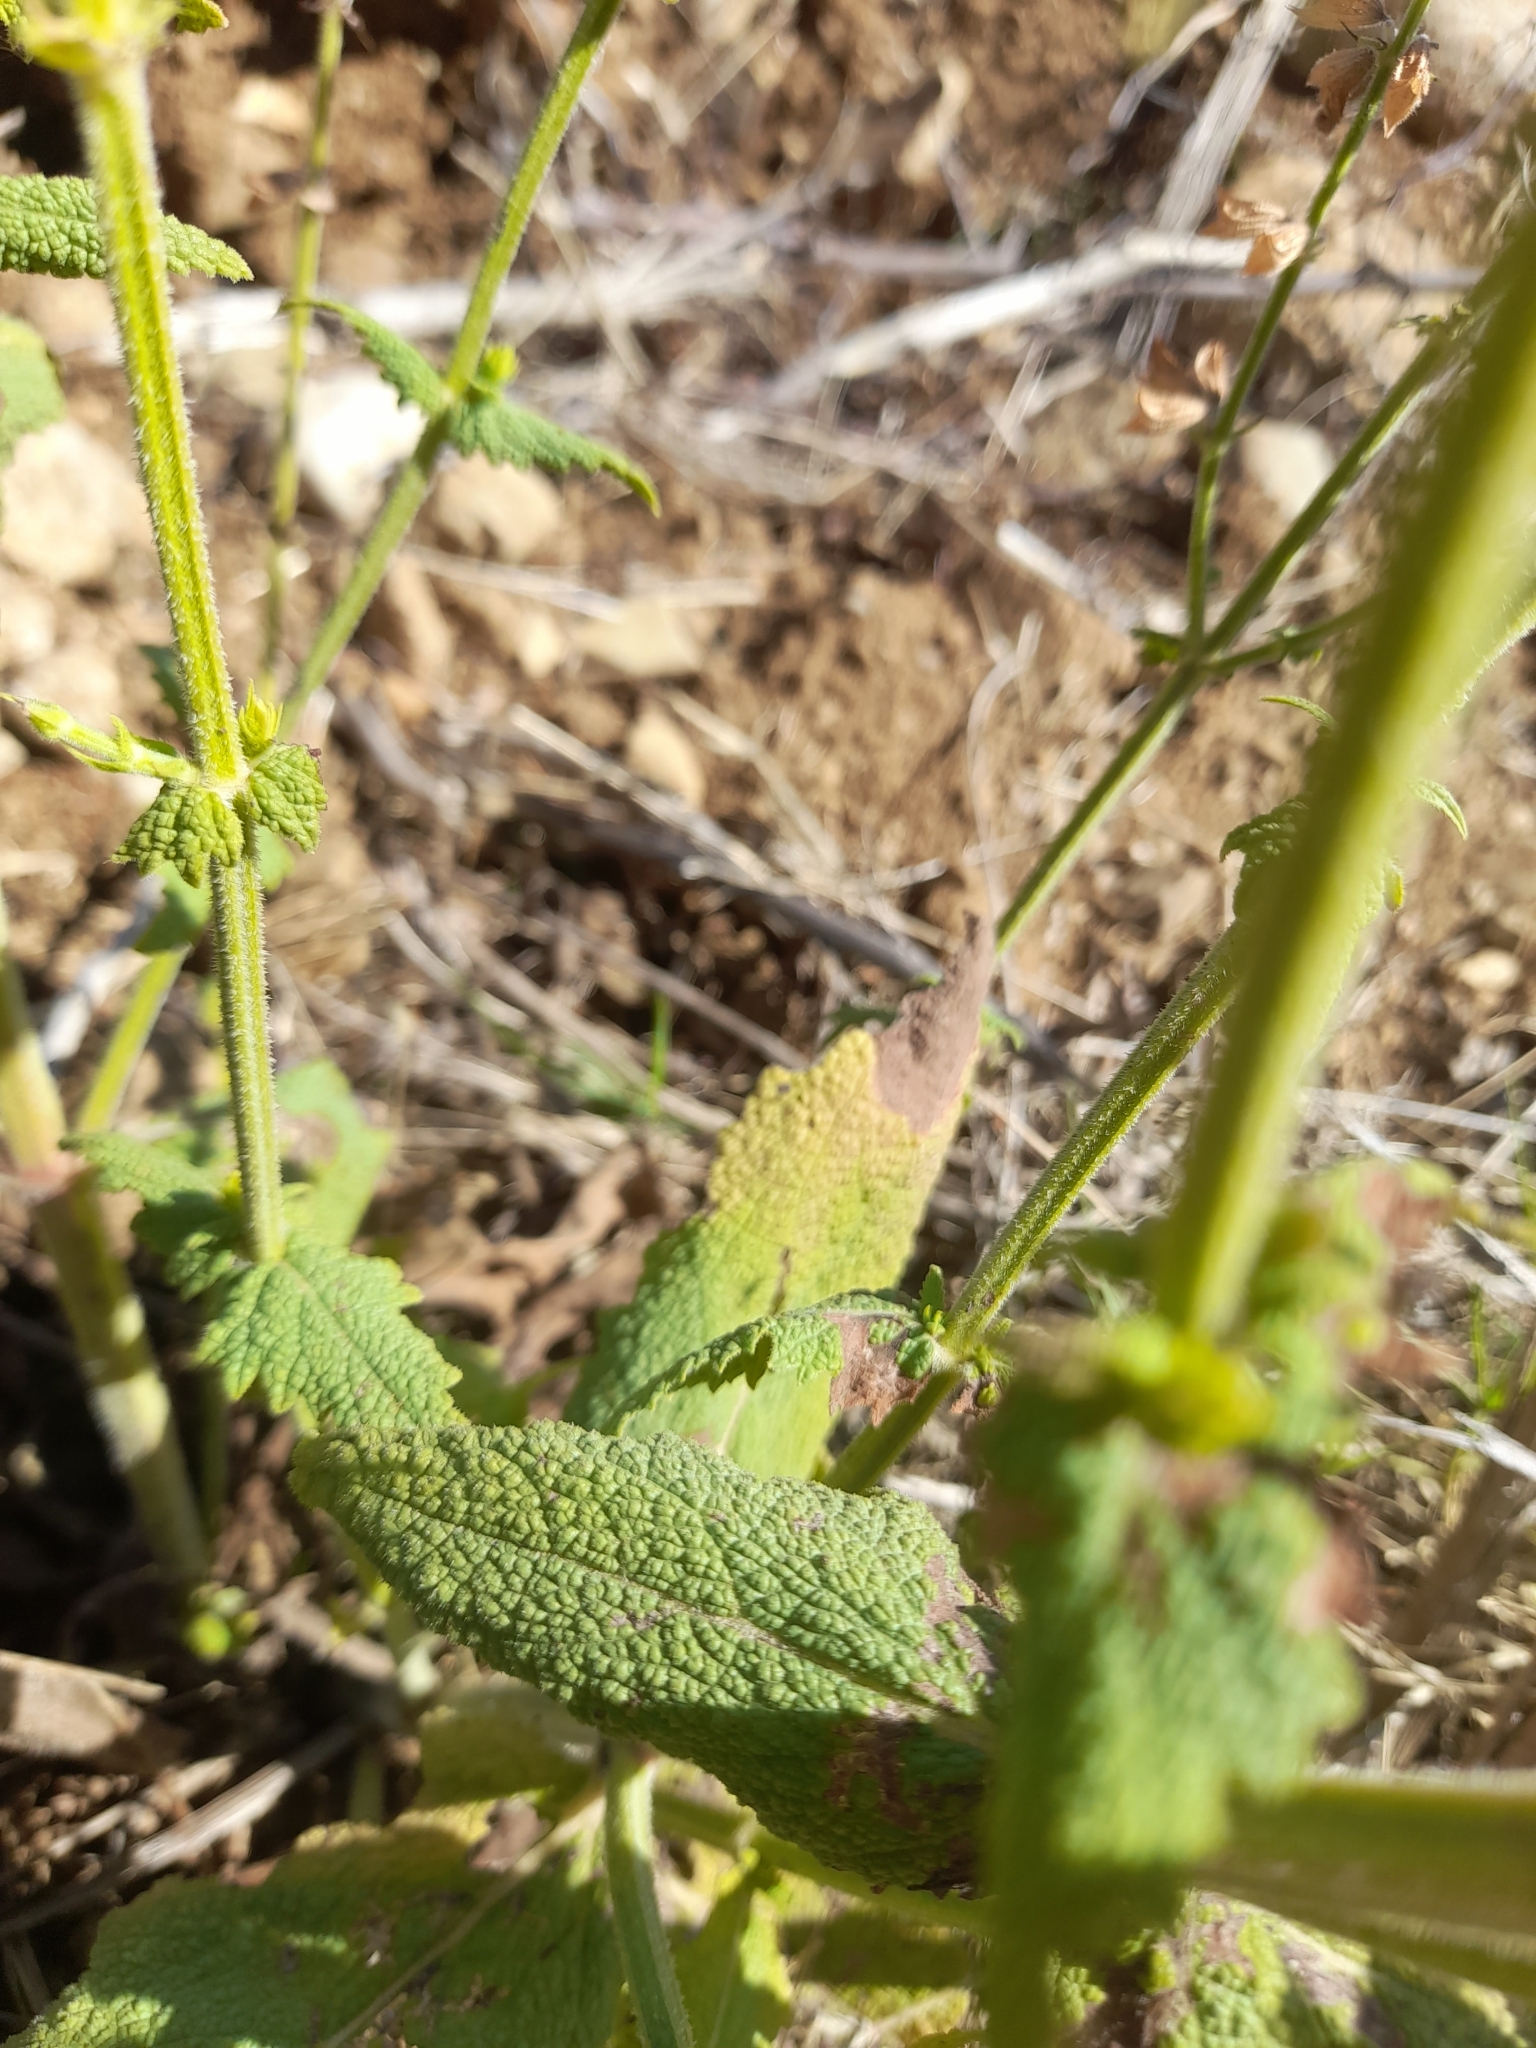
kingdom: Plantae
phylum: Tracheophyta
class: Magnoliopsida
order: Lamiales
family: Lamiaceae
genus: Salvia
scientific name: Salvia pratensis
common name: Meadow sage
